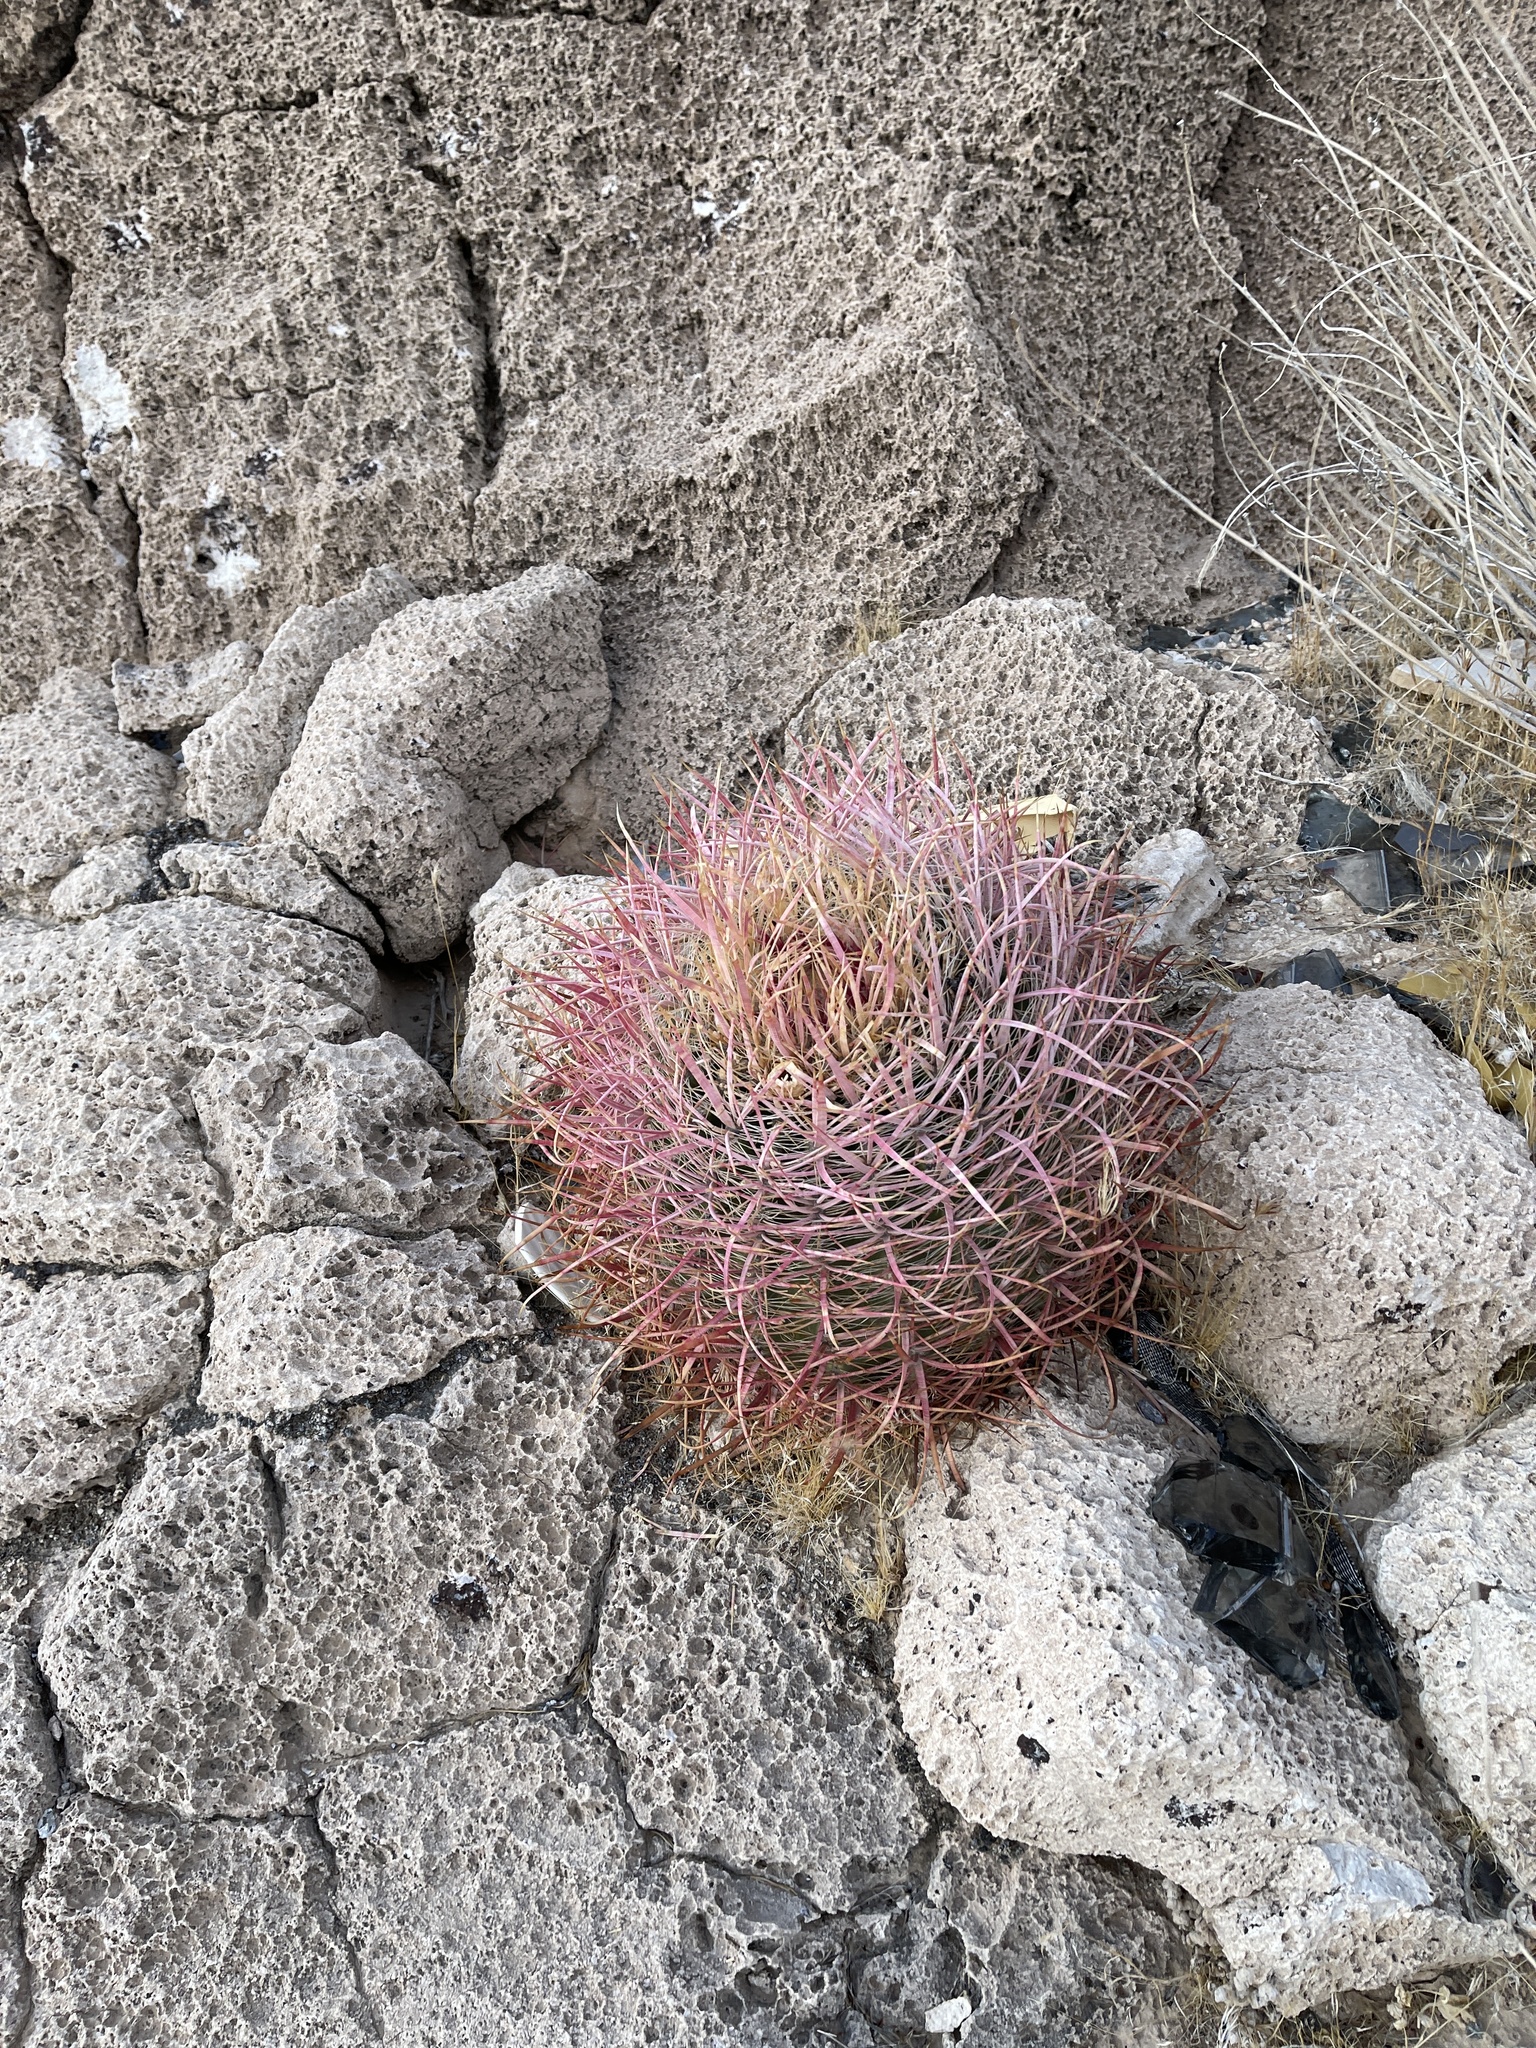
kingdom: Plantae
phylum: Tracheophyta
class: Magnoliopsida
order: Caryophyllales
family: Cactaceae
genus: Ferocactus
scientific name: Ferocactus cylindraceus
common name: California barrel cactus
